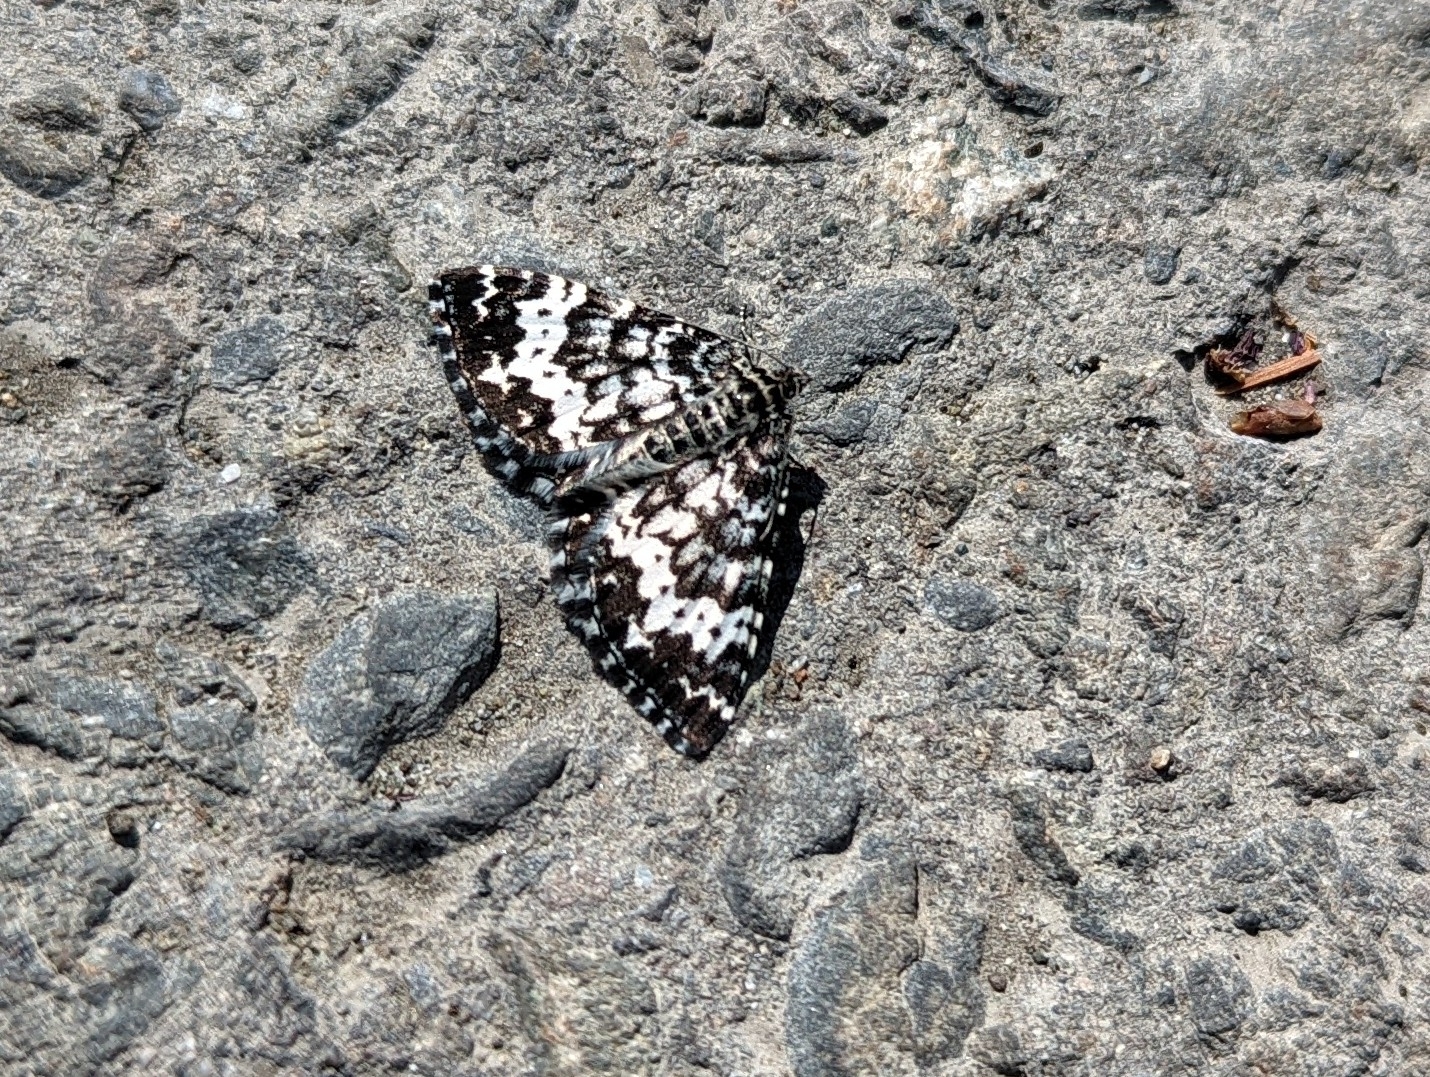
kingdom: Animalia
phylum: Arthropoda
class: Insecta
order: Lepidoptera
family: Geometridae
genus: Rheumaptera
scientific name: Rheumaptera
